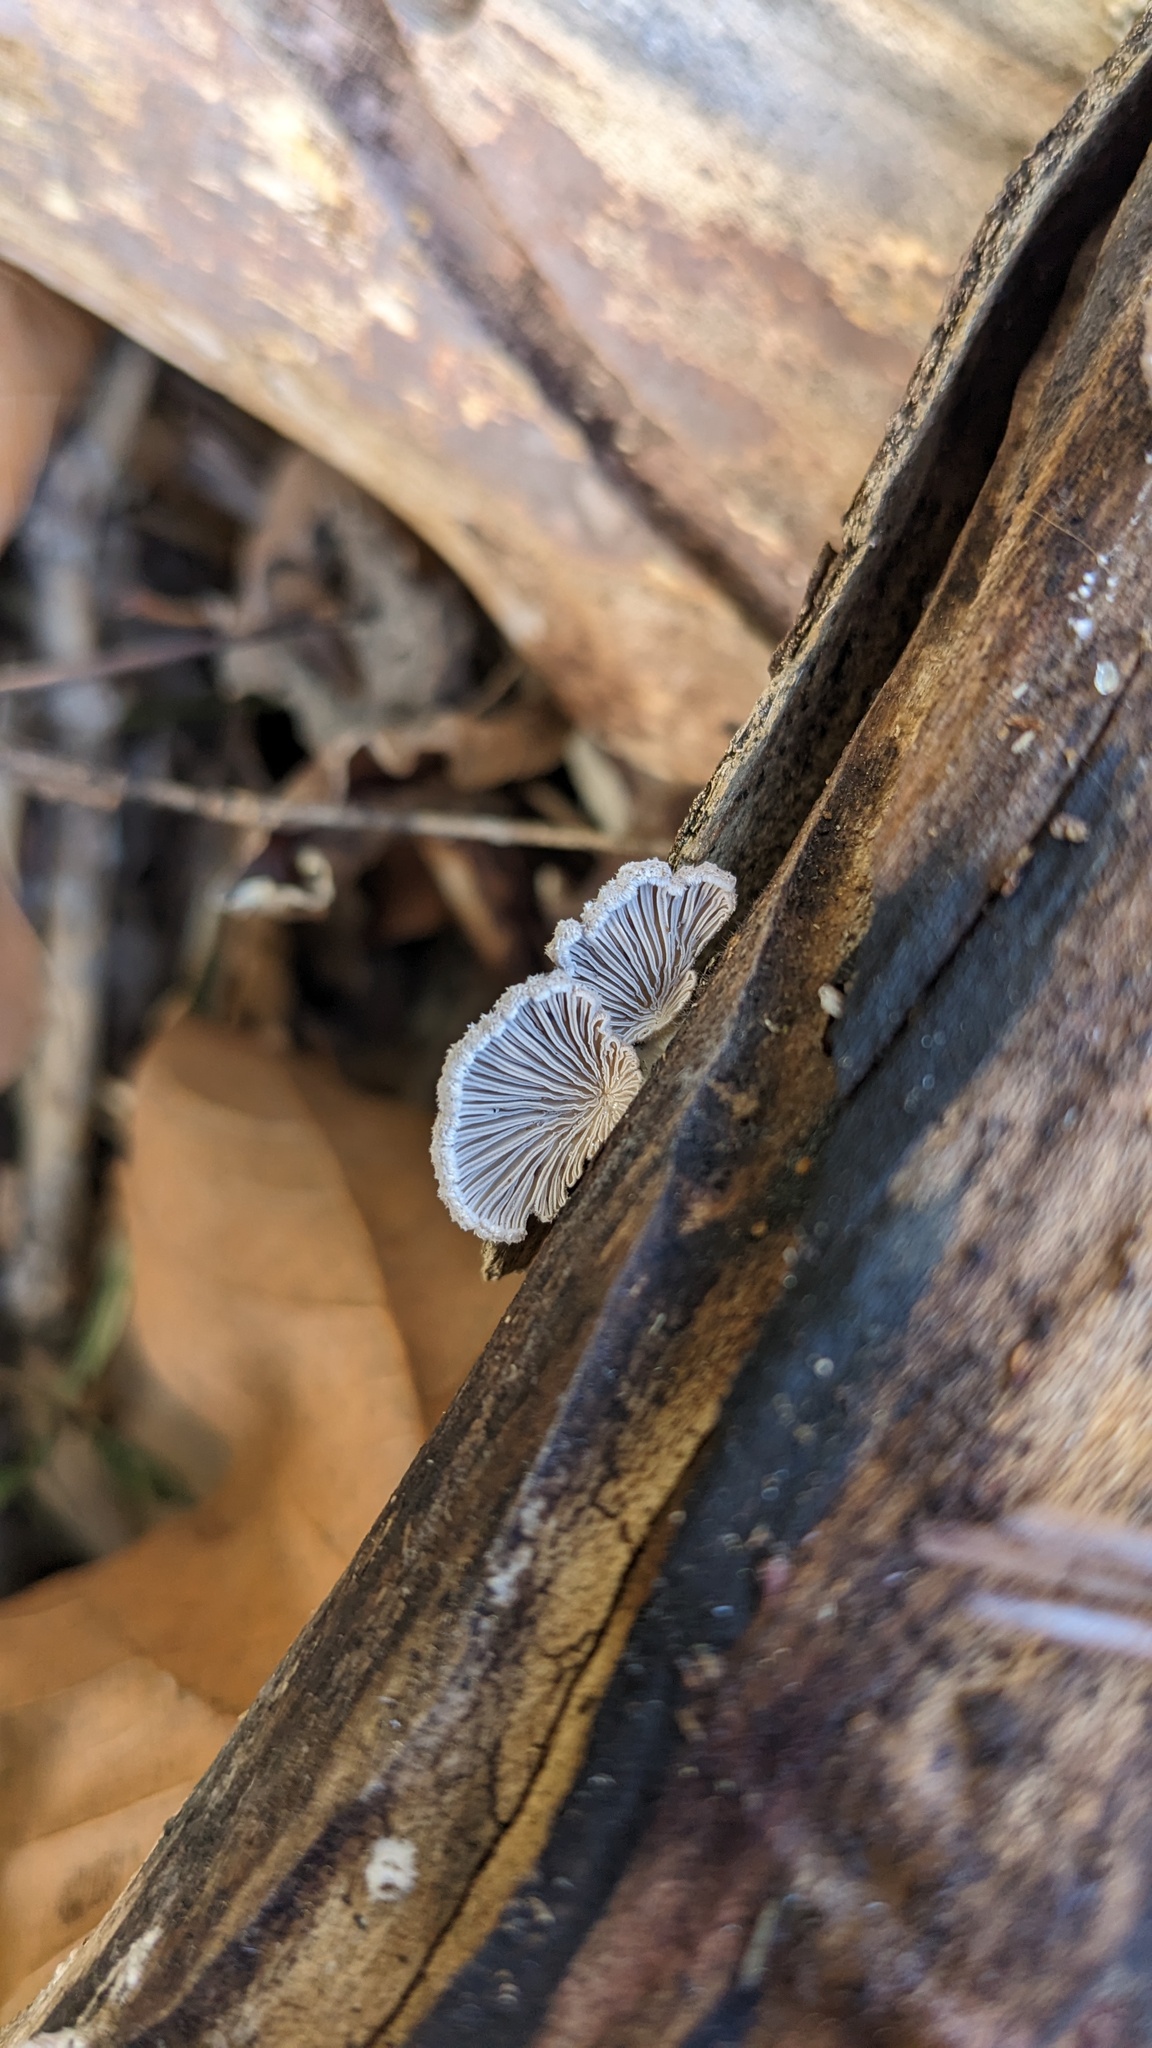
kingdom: Fungi
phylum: Basidiomycota
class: Agaricomycetes
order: Agaricales
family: Schizophyllaceae
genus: Schizophyllum
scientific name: Schizophyllum commune
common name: Common porecrust
